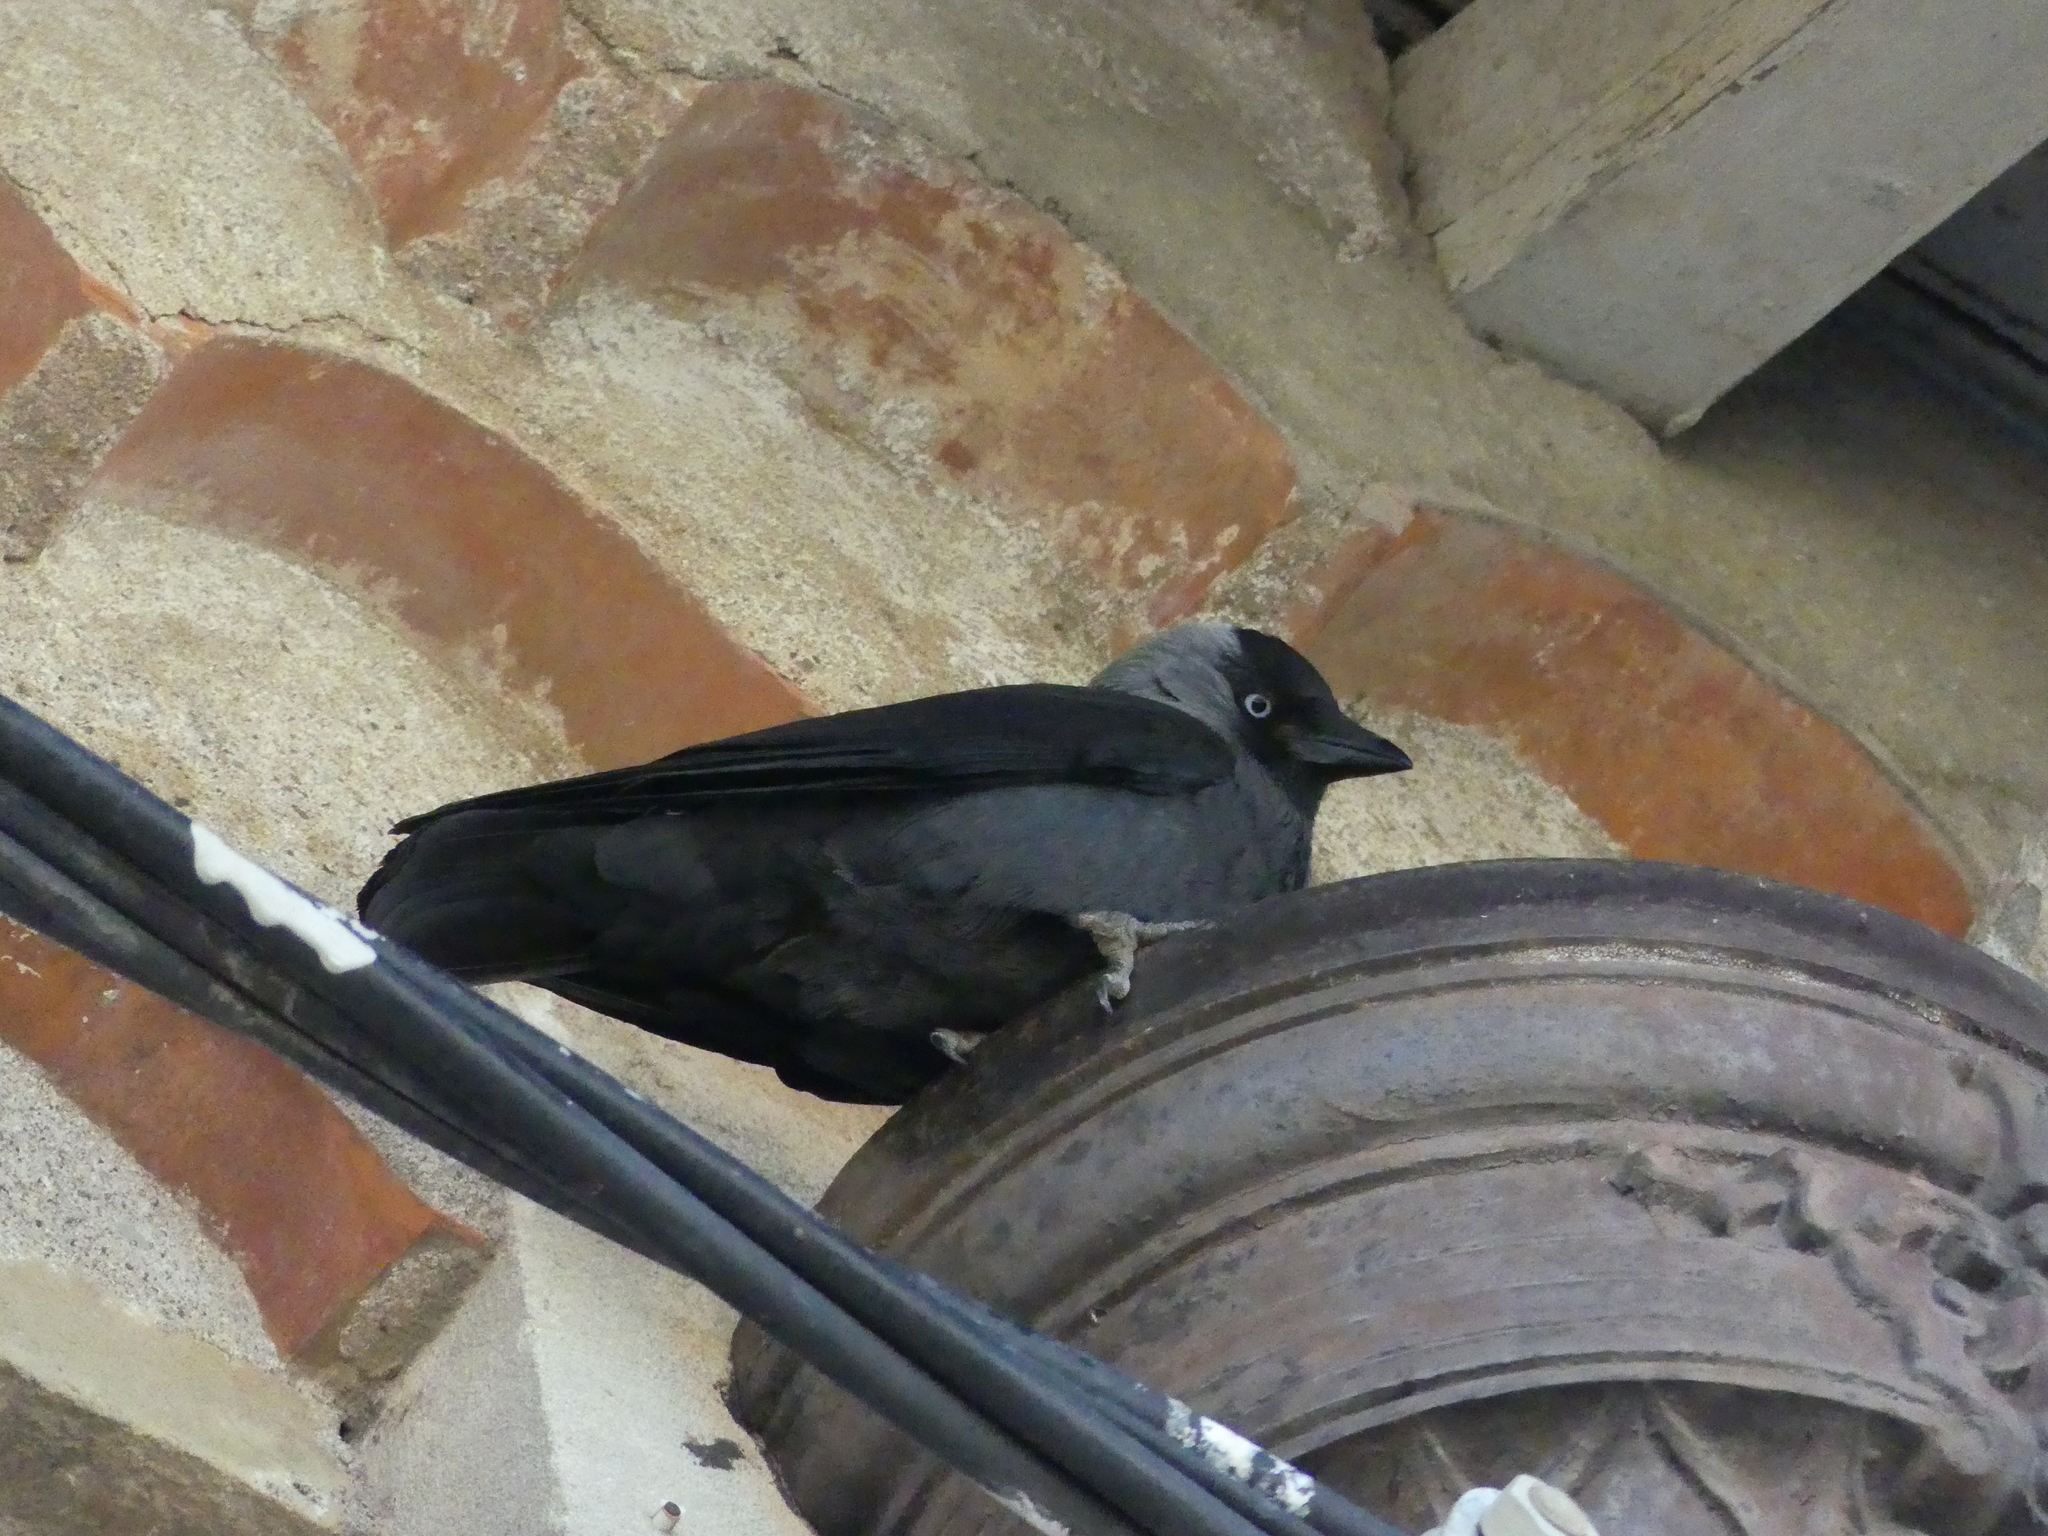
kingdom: Animalia
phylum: Chordata
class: Aves
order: Passeriformes
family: Corvidae
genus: Coloeus
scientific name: Coloeus monedula
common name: Western jackdaw
